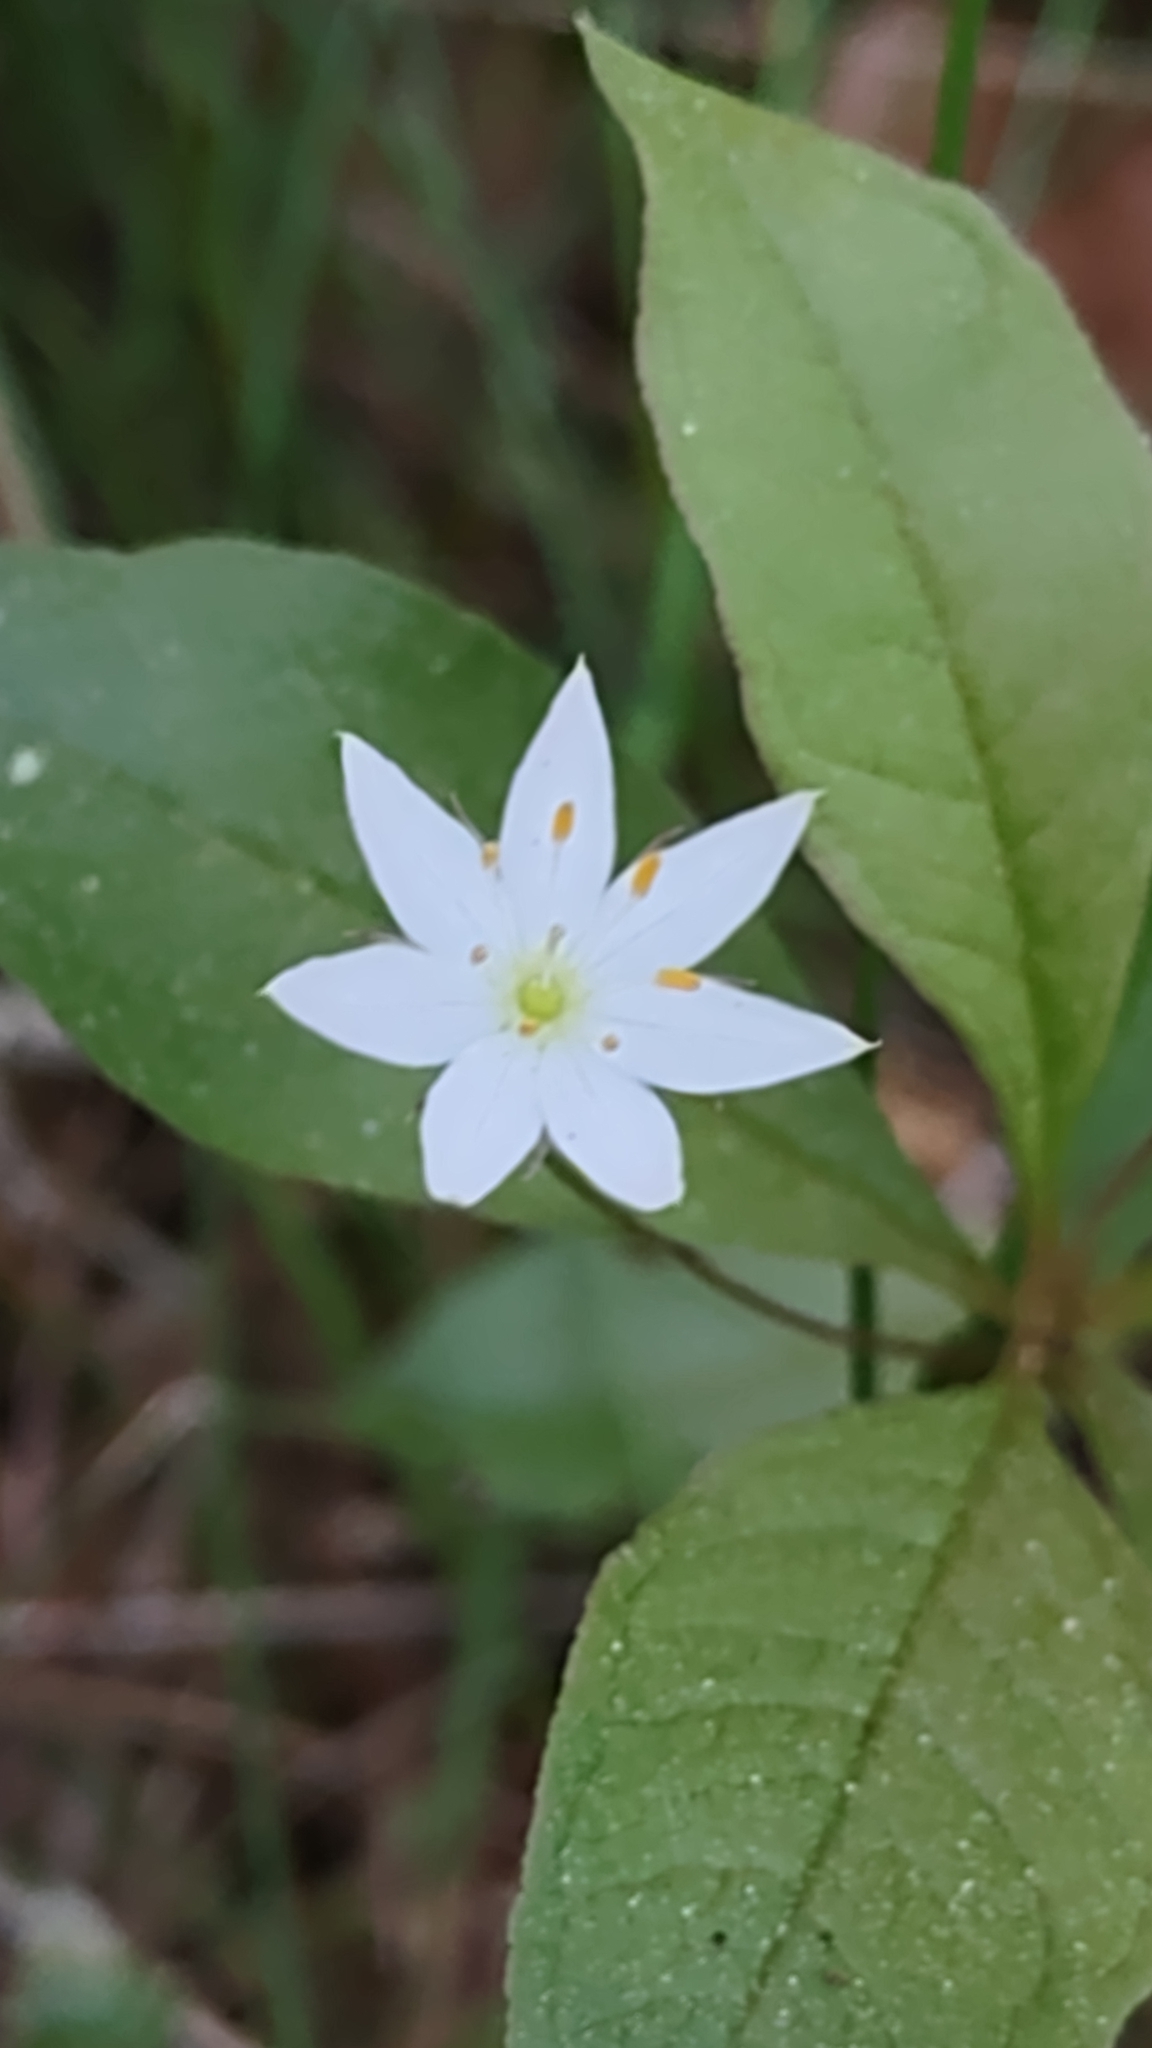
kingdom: Plantae
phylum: Tracheophyta
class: Magnoliopsida
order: Ericales
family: Primulaceae
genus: Lysimachia
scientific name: Lysimachia europaea
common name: Arctic starflower
